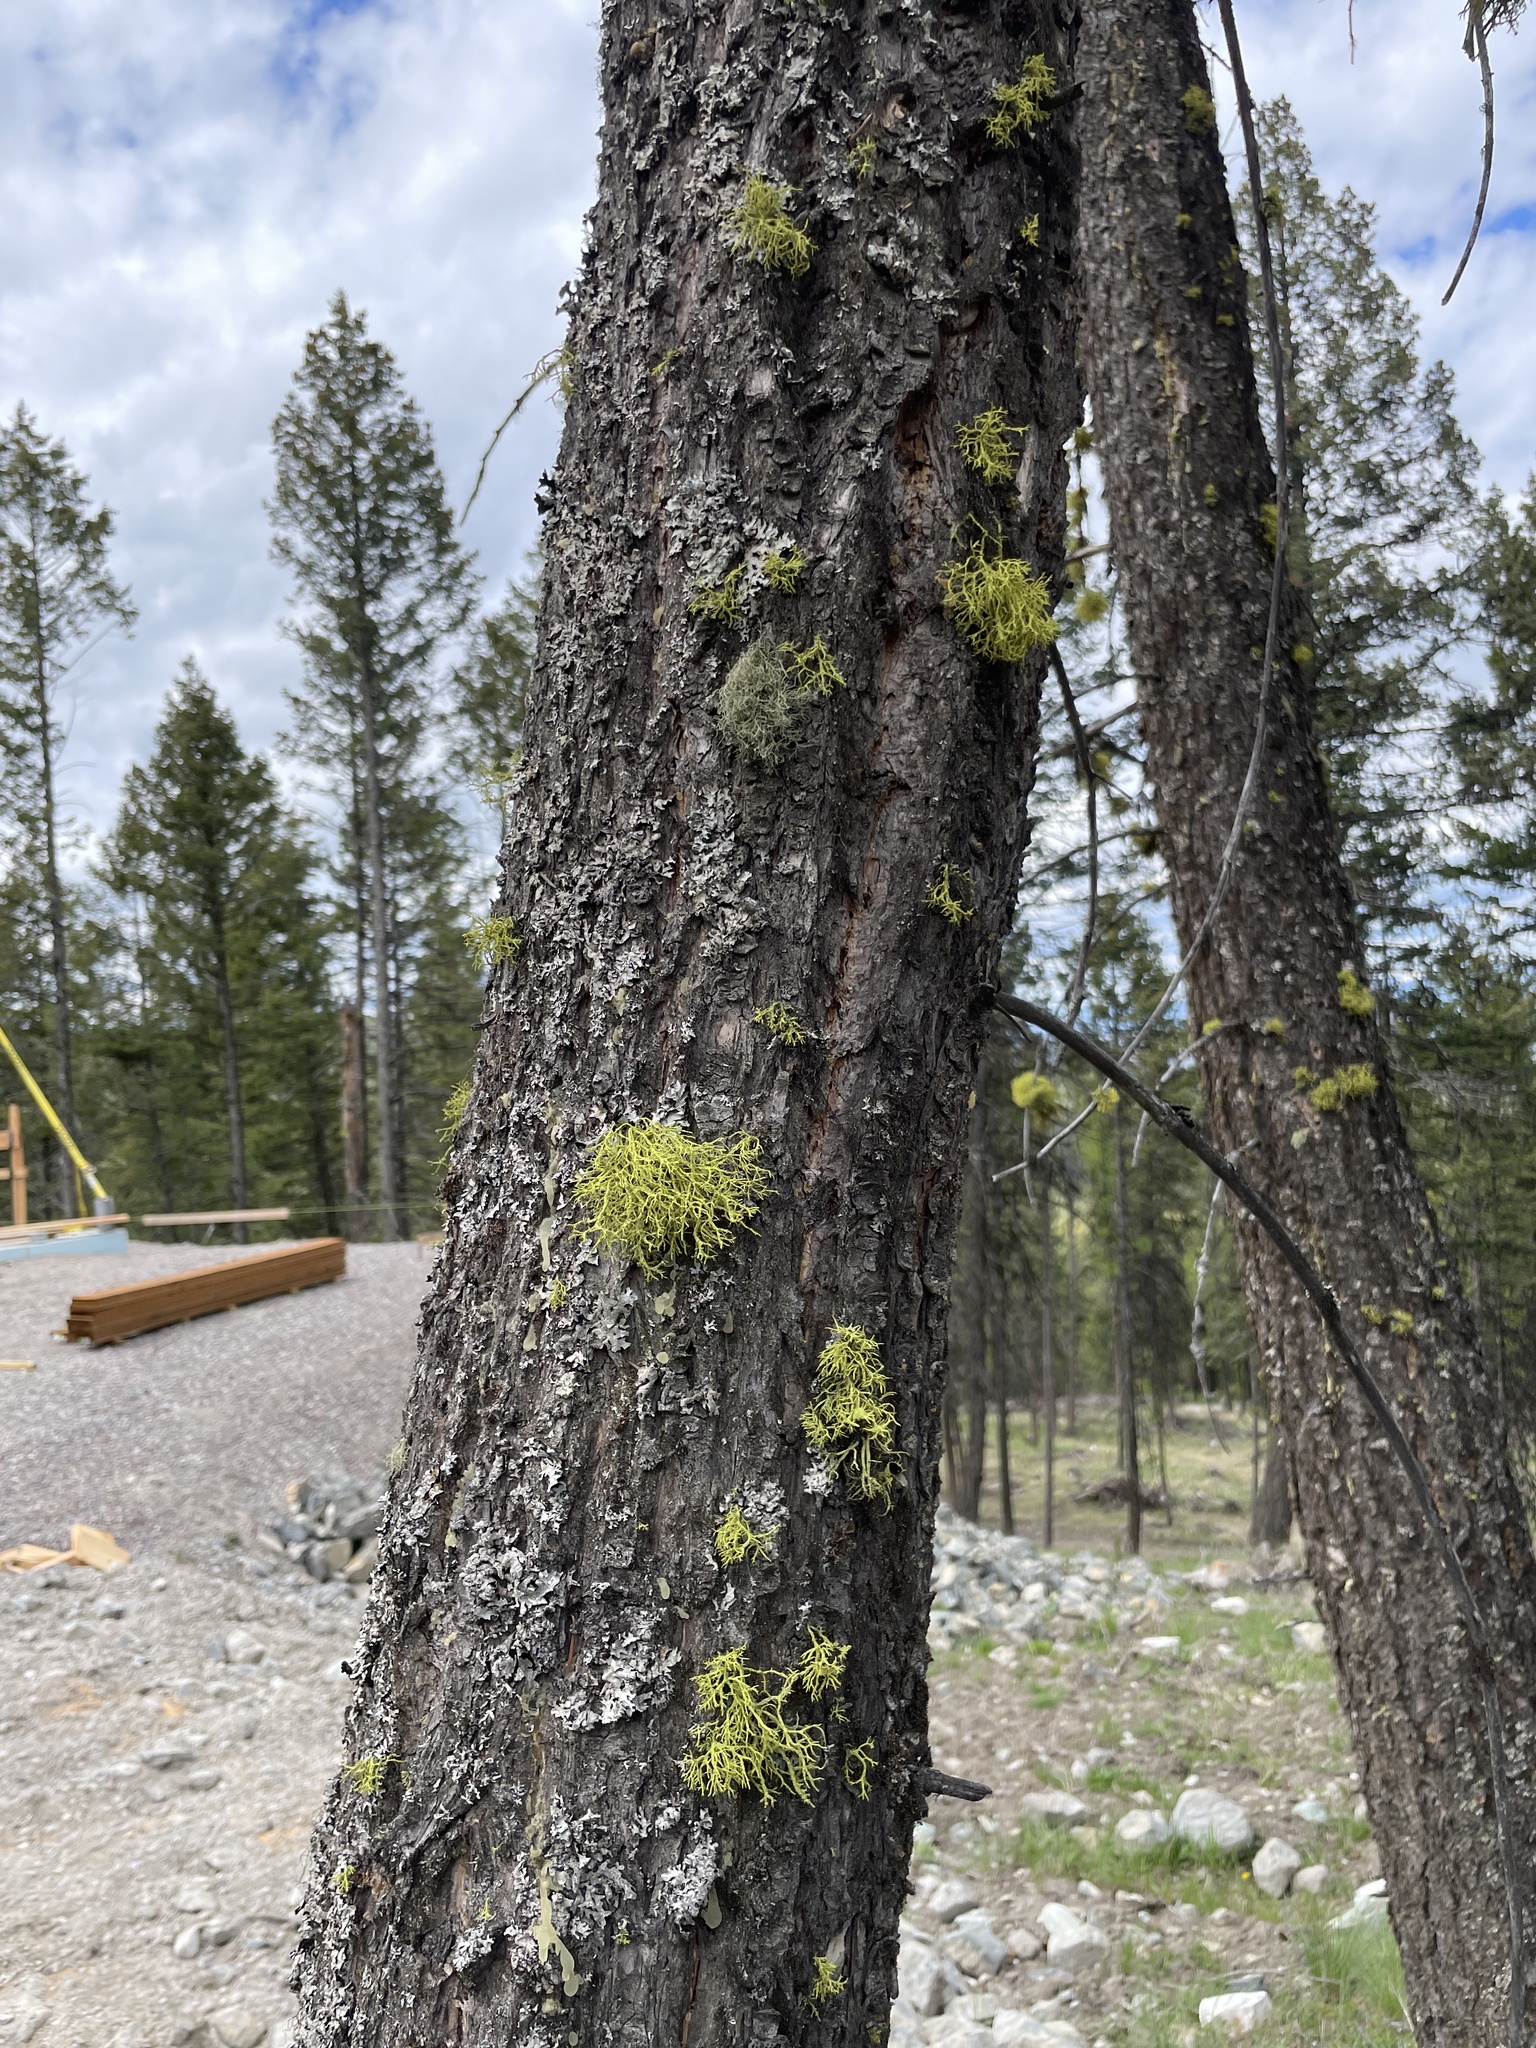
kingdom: Fungi
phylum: Ascomycota
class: Lecanoromycetes
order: Lecanorales
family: Parmeliaceae
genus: Letharia
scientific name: Letharia vulpina
